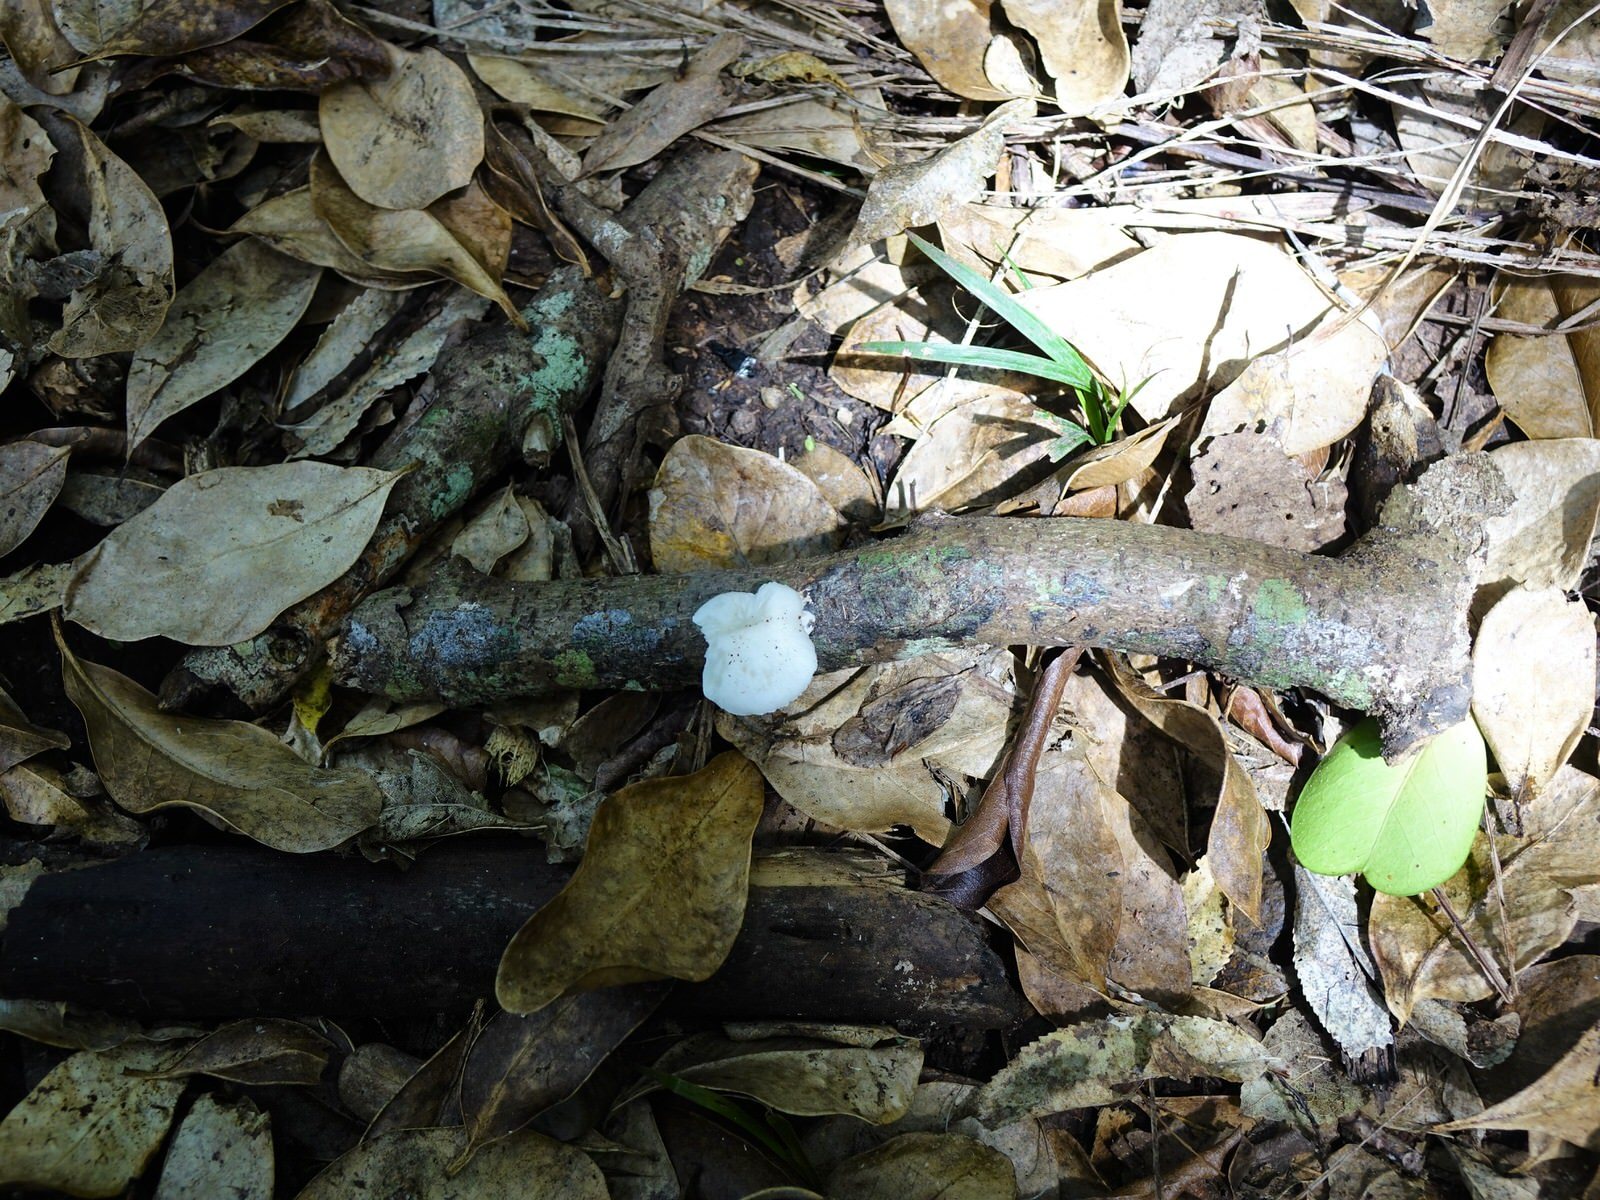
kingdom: Fungi
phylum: Basidiomycota
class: Agaricomycetes
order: Agaricales
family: Physalacriaceae
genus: Oudemansiella
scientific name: Oudemansiella australis
